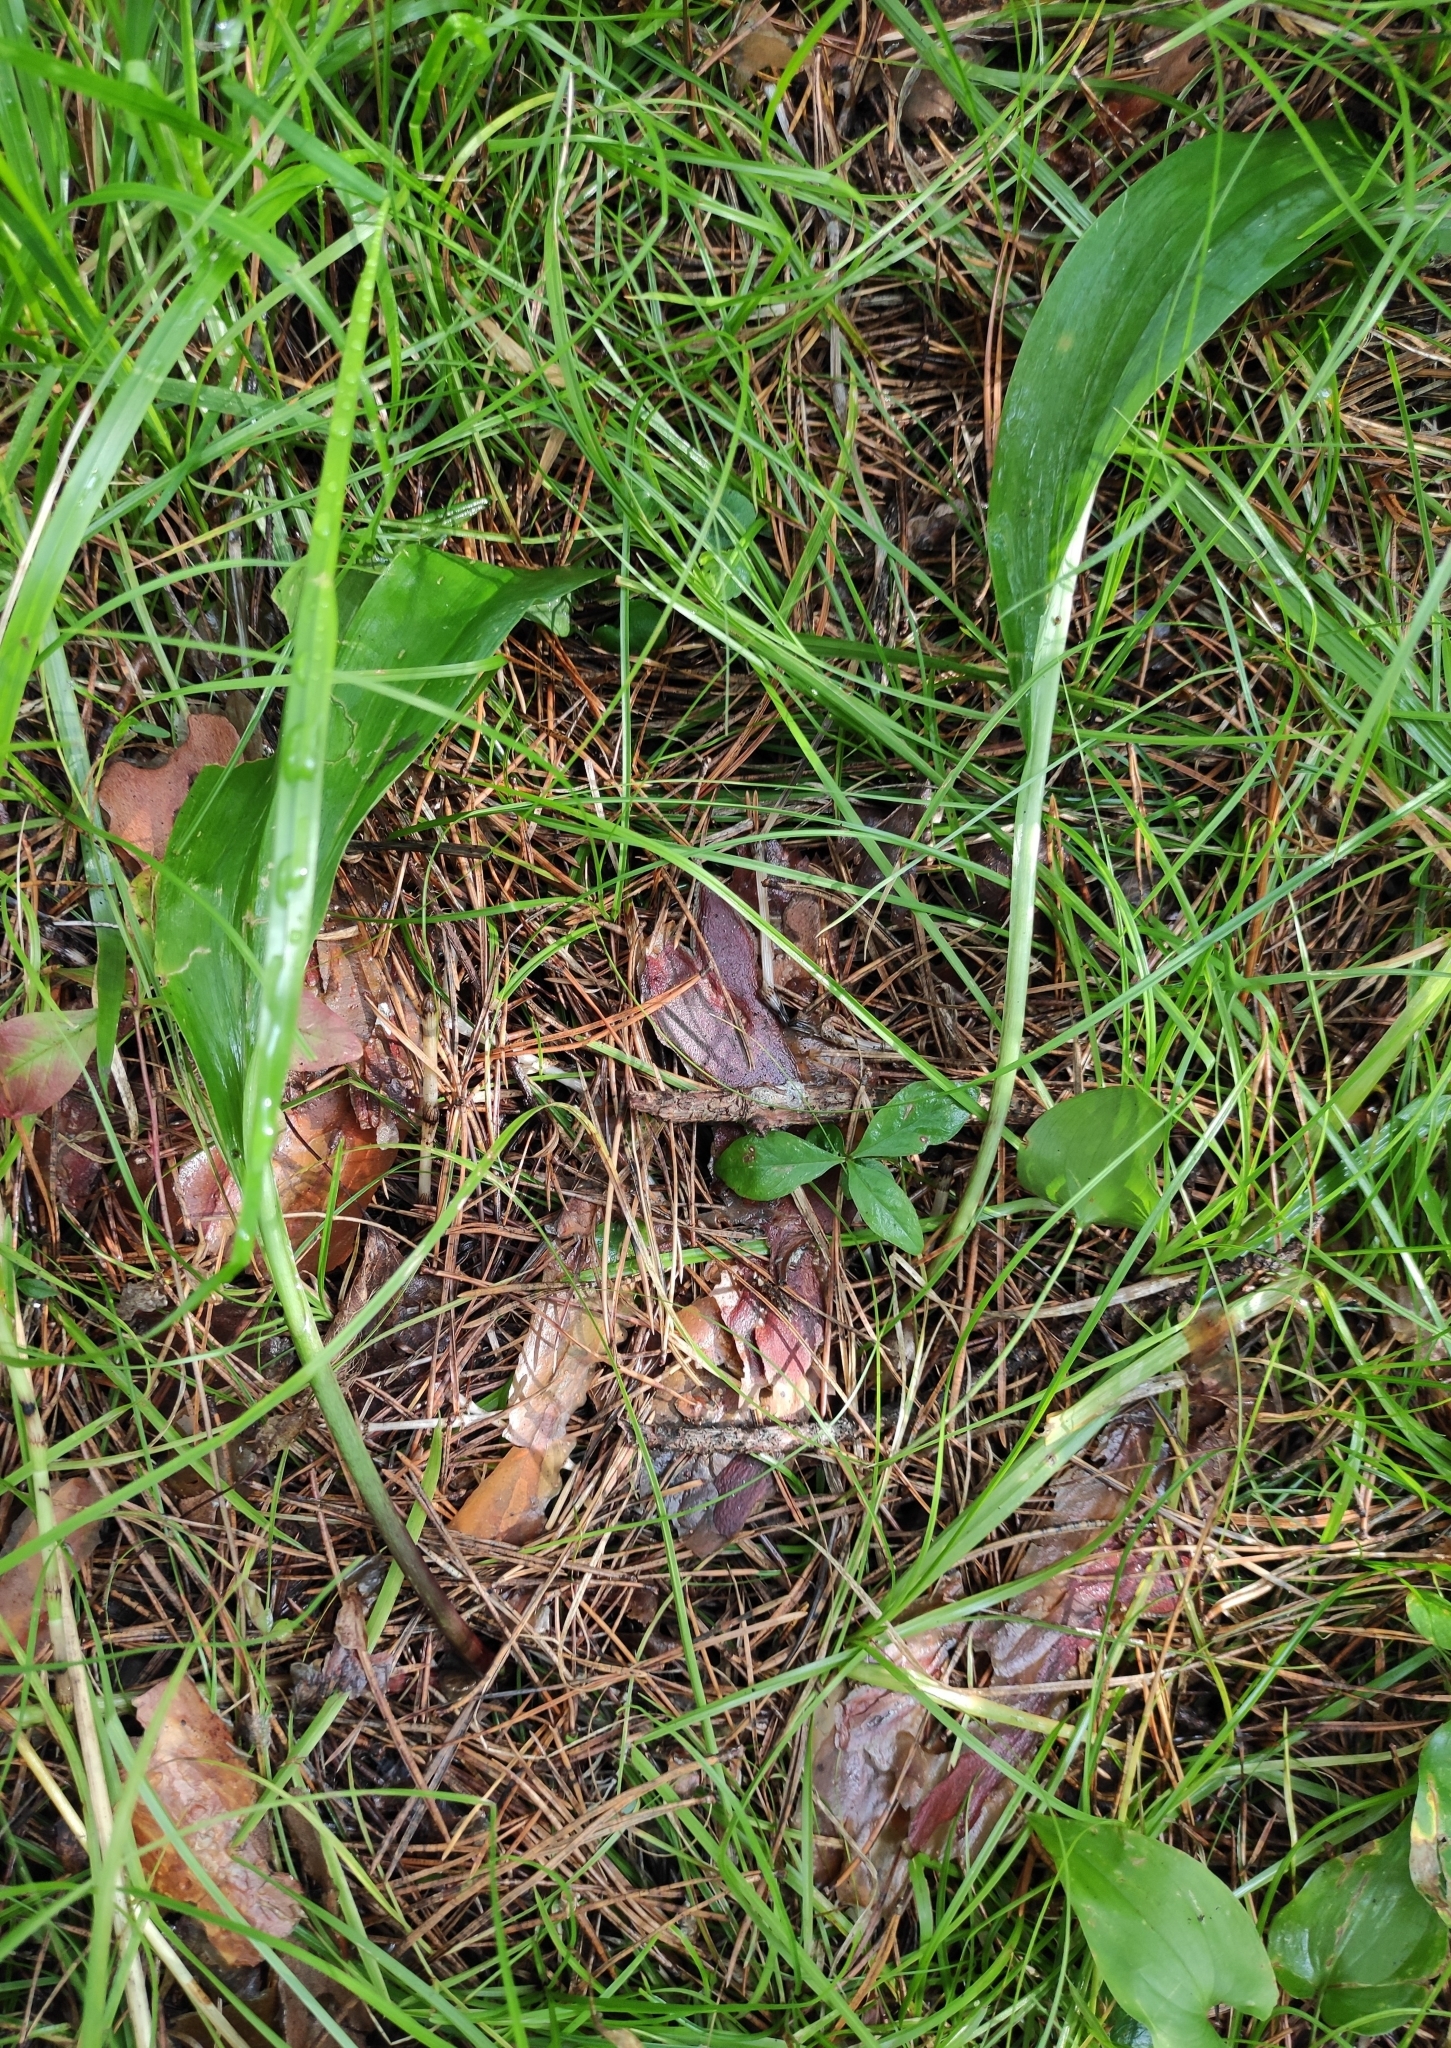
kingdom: Plantae
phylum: Tracheophyta
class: Liliopsida
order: Asparagales
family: Amaryllidaceae
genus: Allium
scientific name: Allium microdictyon
